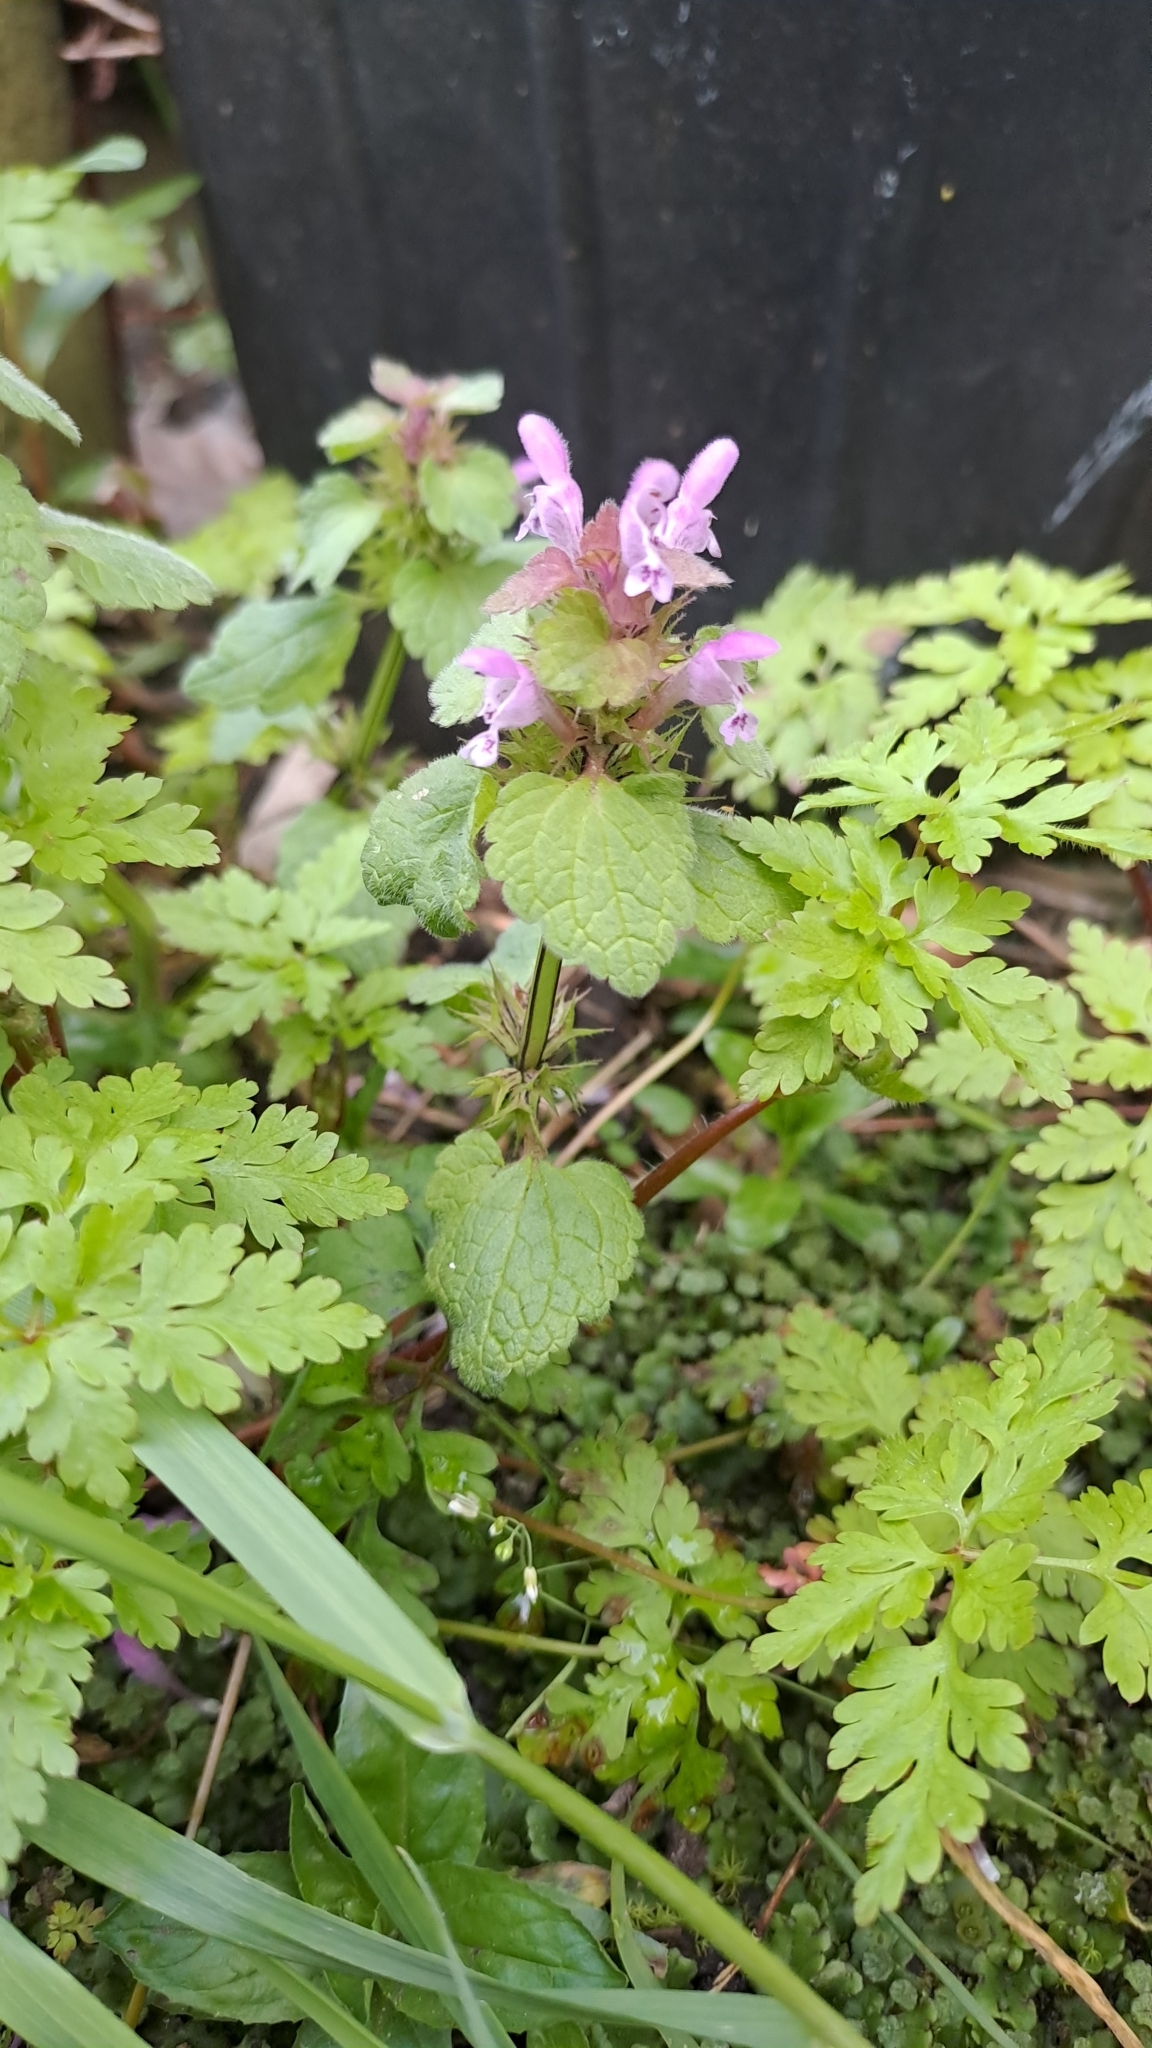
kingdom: Plantae
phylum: Tracheophyta
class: Magnoliopsida
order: Lamiales
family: Lamiaceae
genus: Lamium
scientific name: Lamium purpureum
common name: Red dead-nettle
